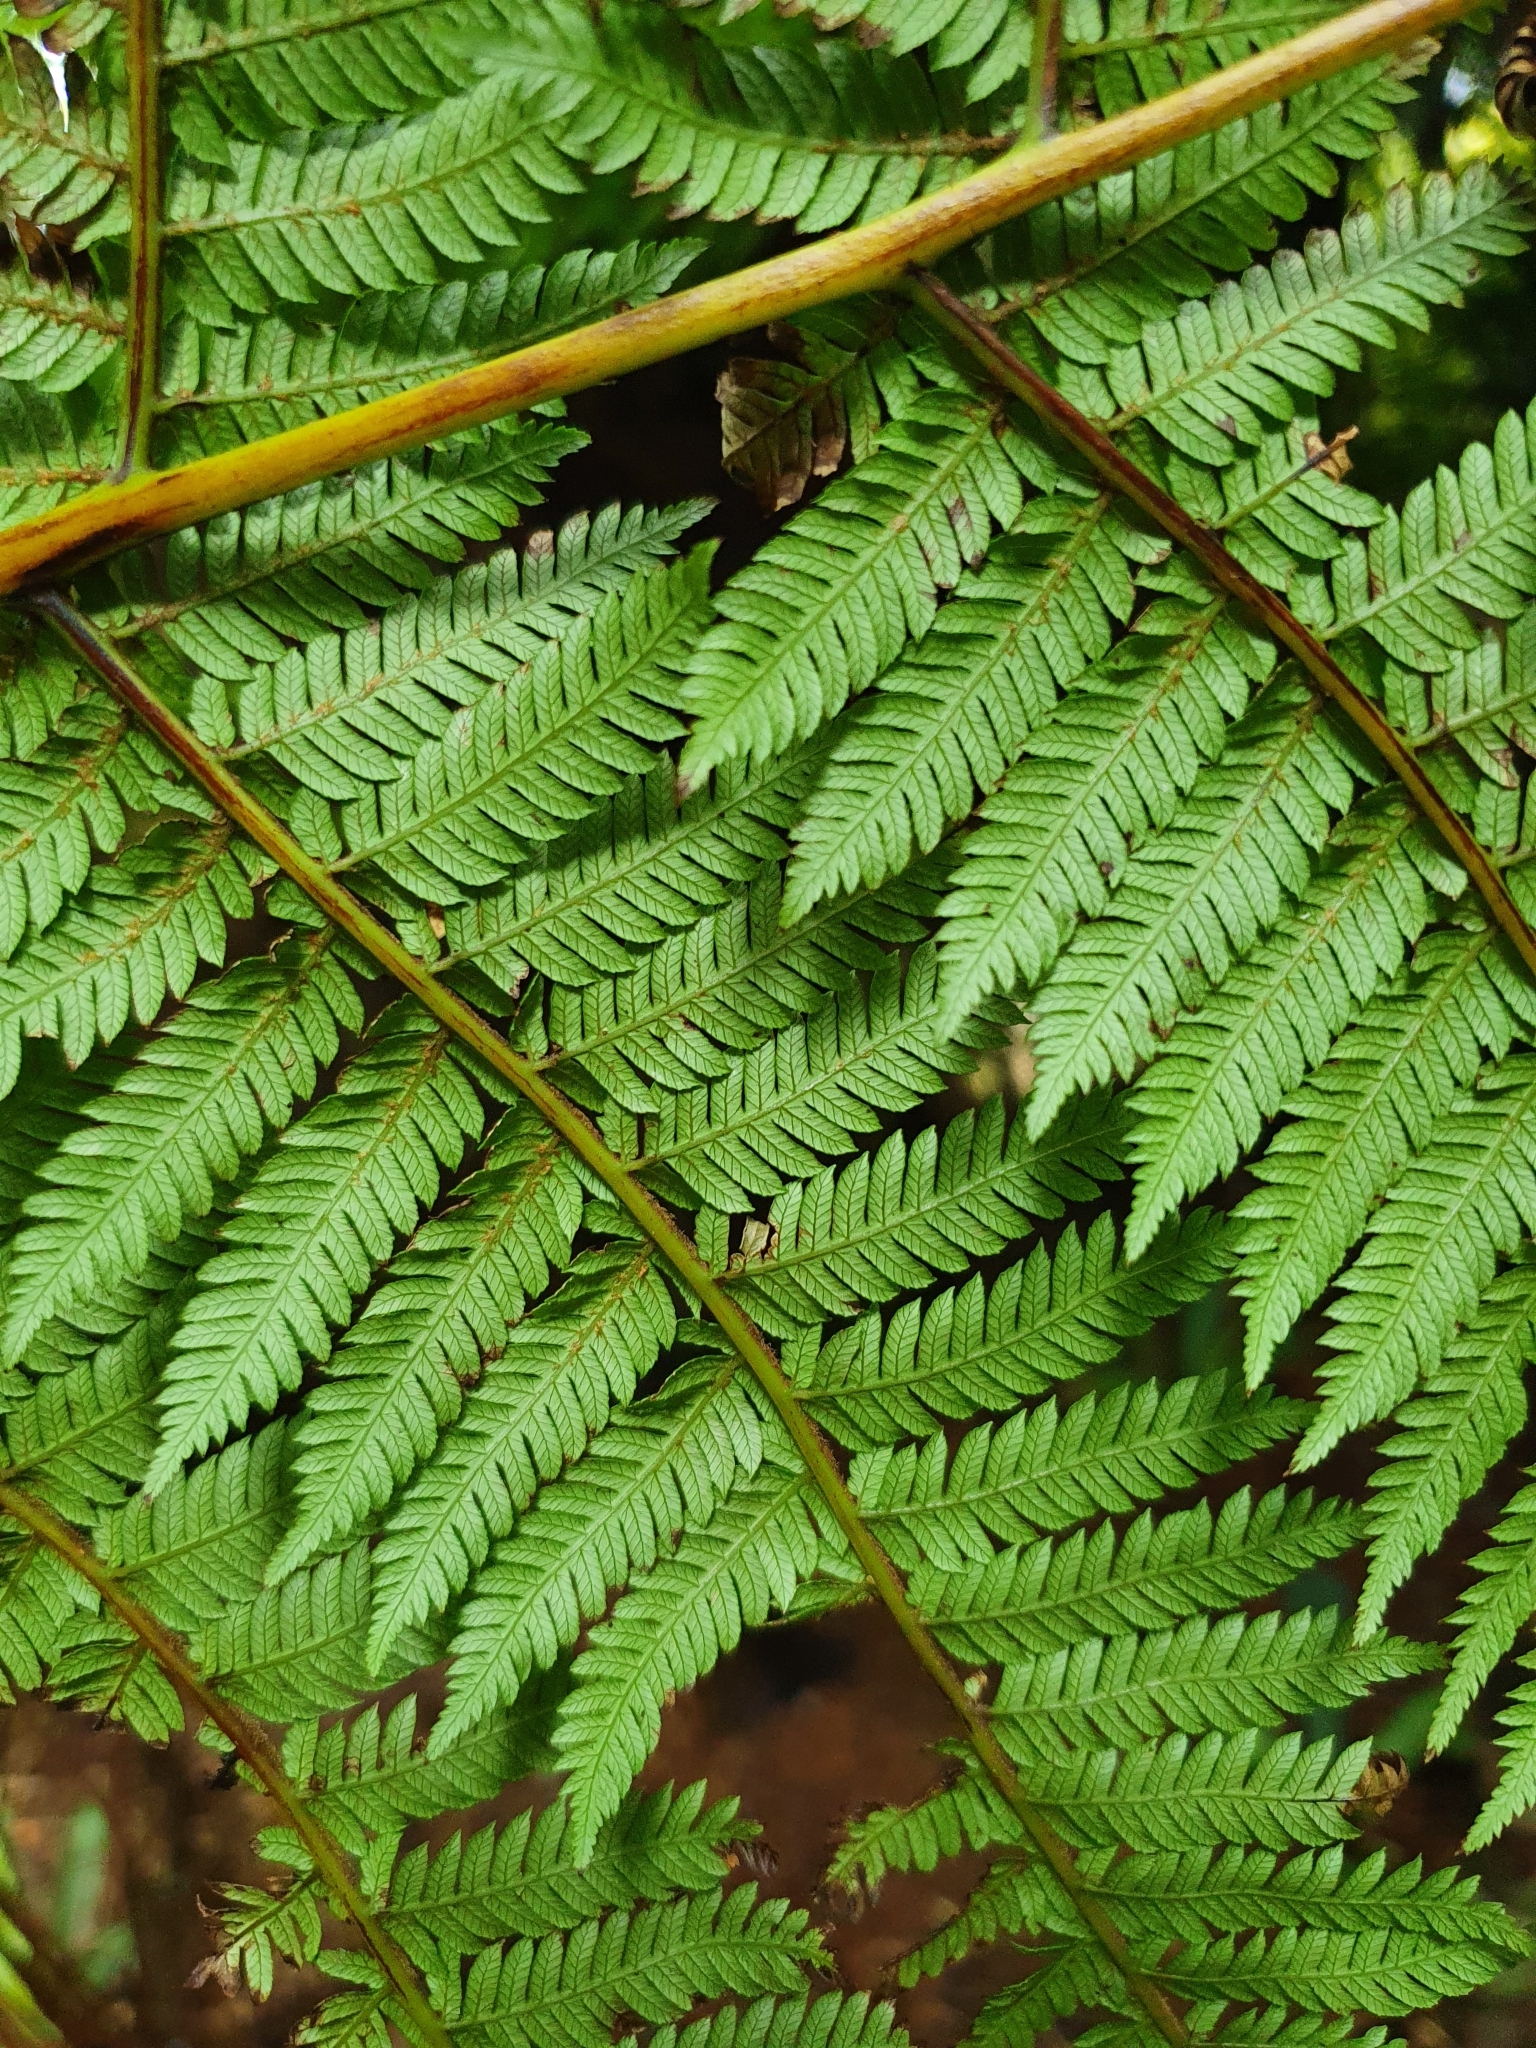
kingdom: Plantae
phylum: Tracheophyta
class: Polypodiopsida
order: Cyatheales
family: Cyatheaceae
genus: Alsophila
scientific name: Alsophila smithii
